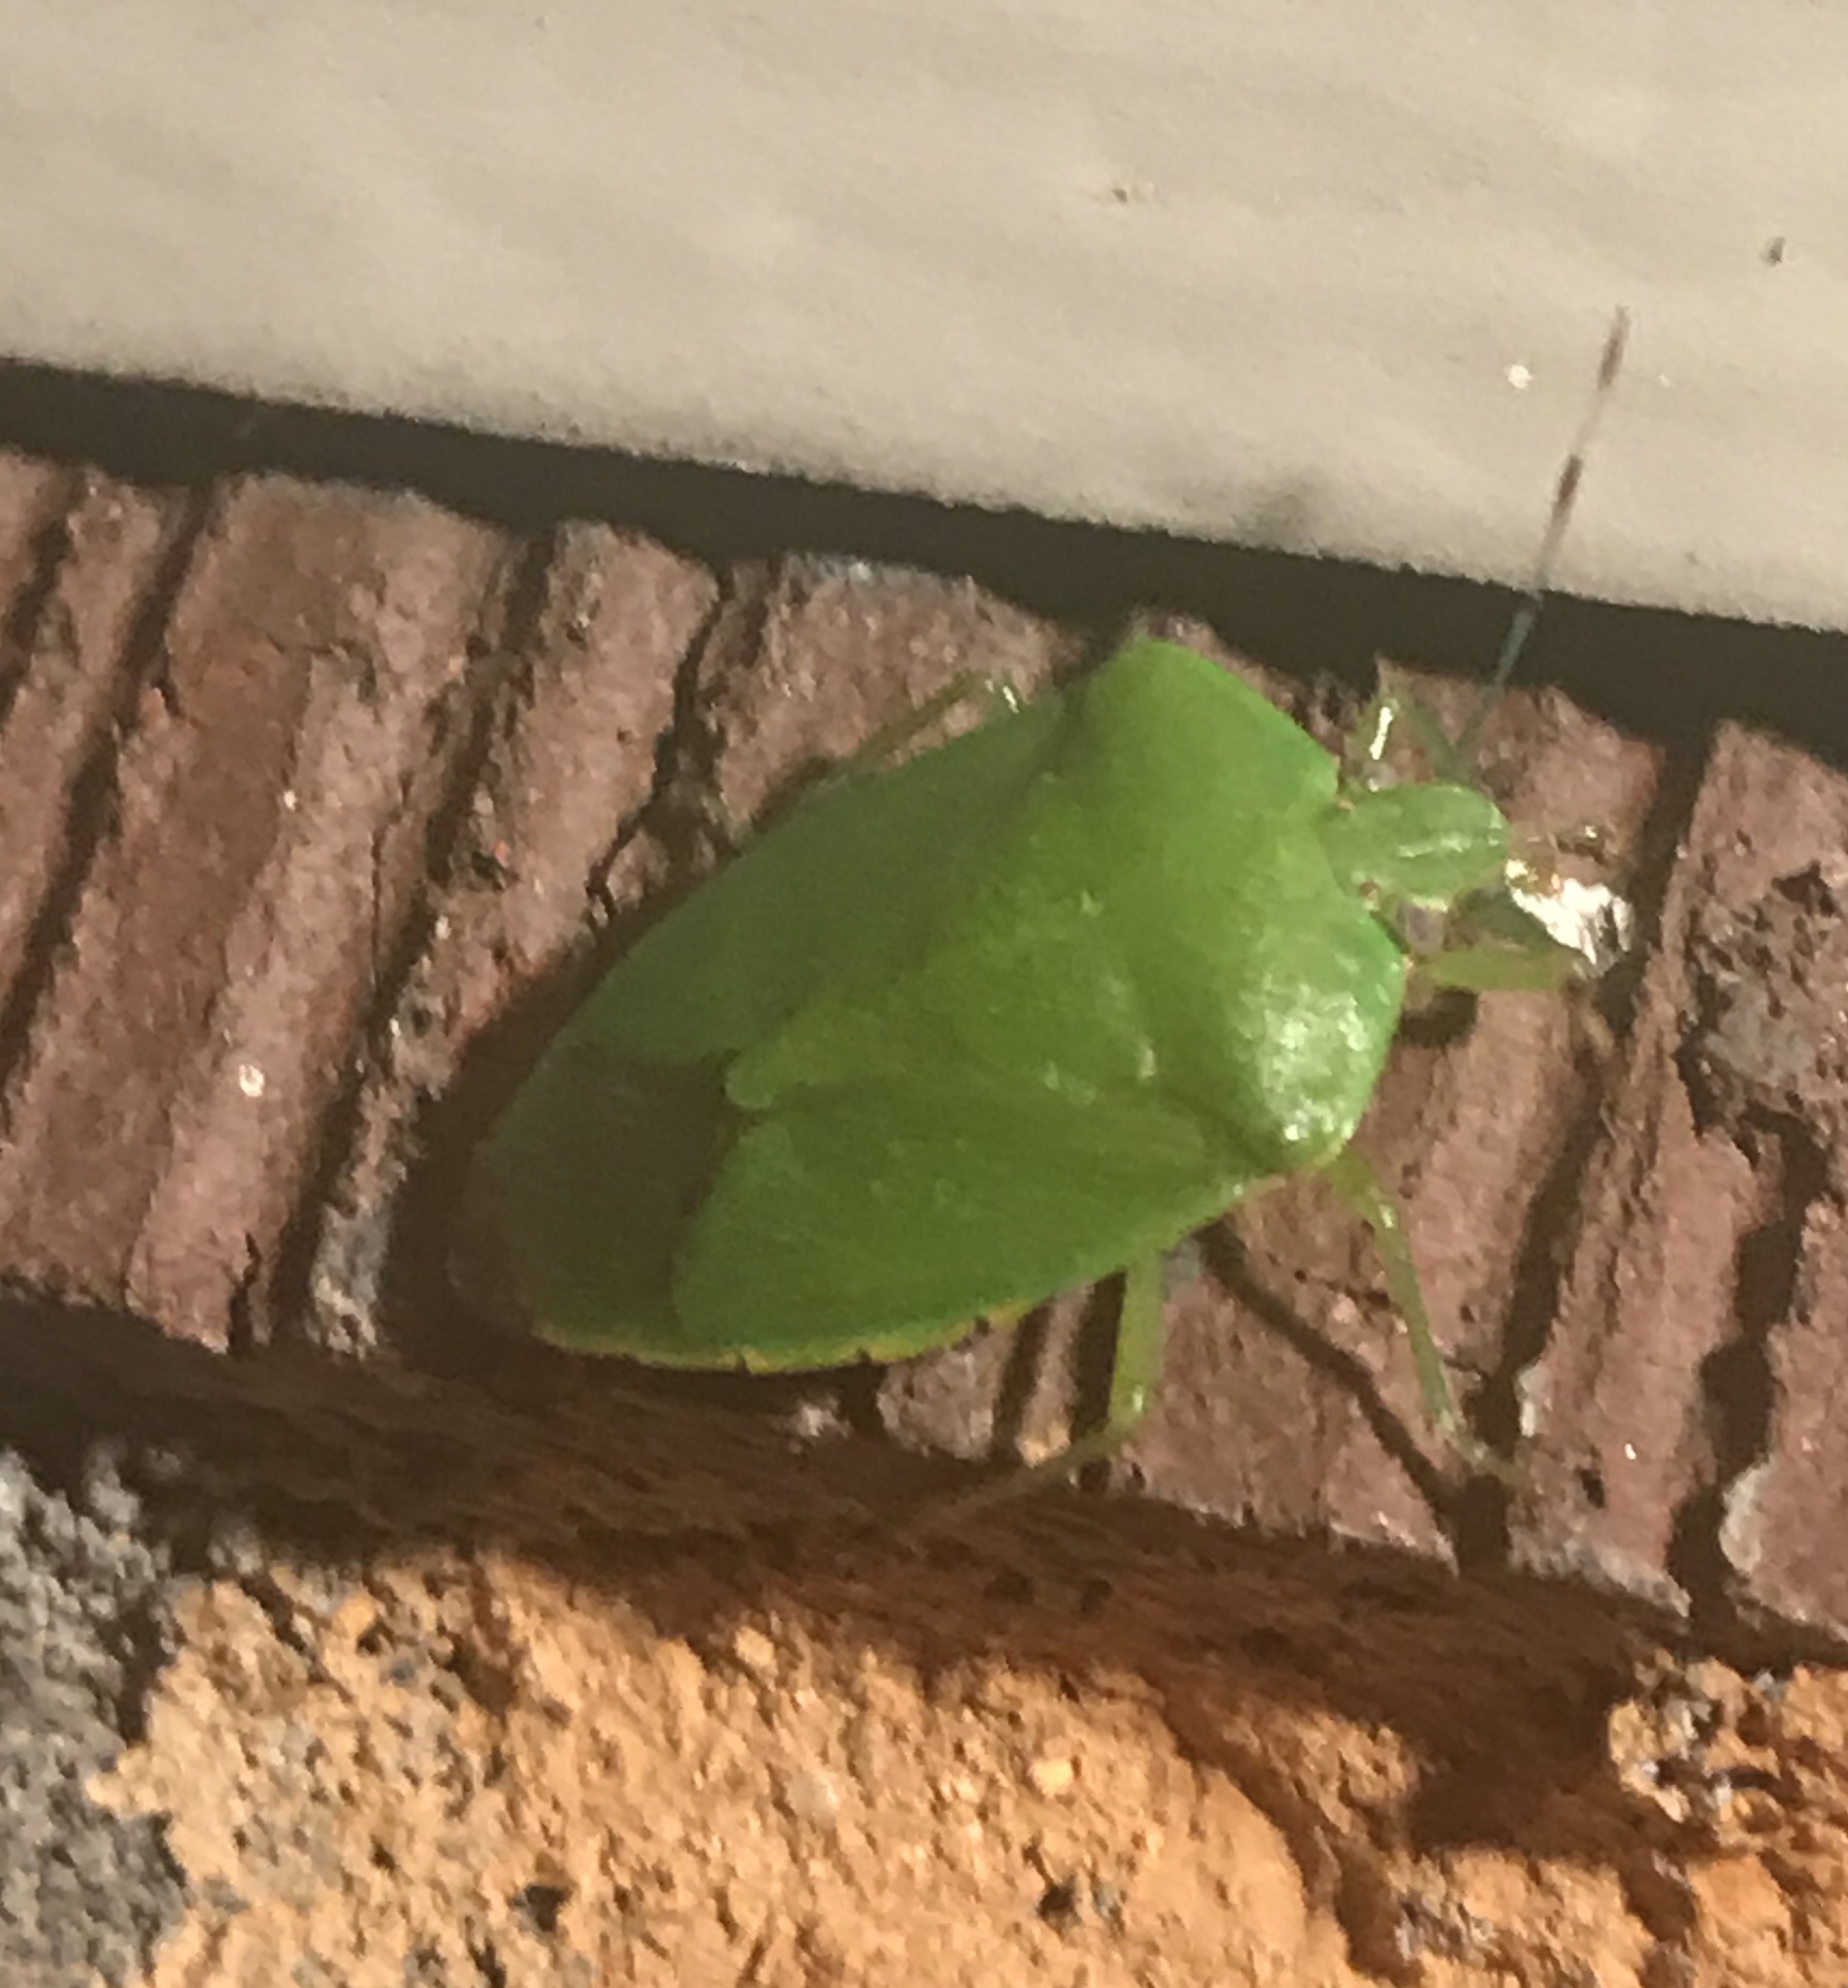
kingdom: Animalia
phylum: Arthropoda
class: Insecta
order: Hemiptera
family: Pentatomidae
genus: Chinavia
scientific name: Chinavia hilaris
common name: Green stink bug
